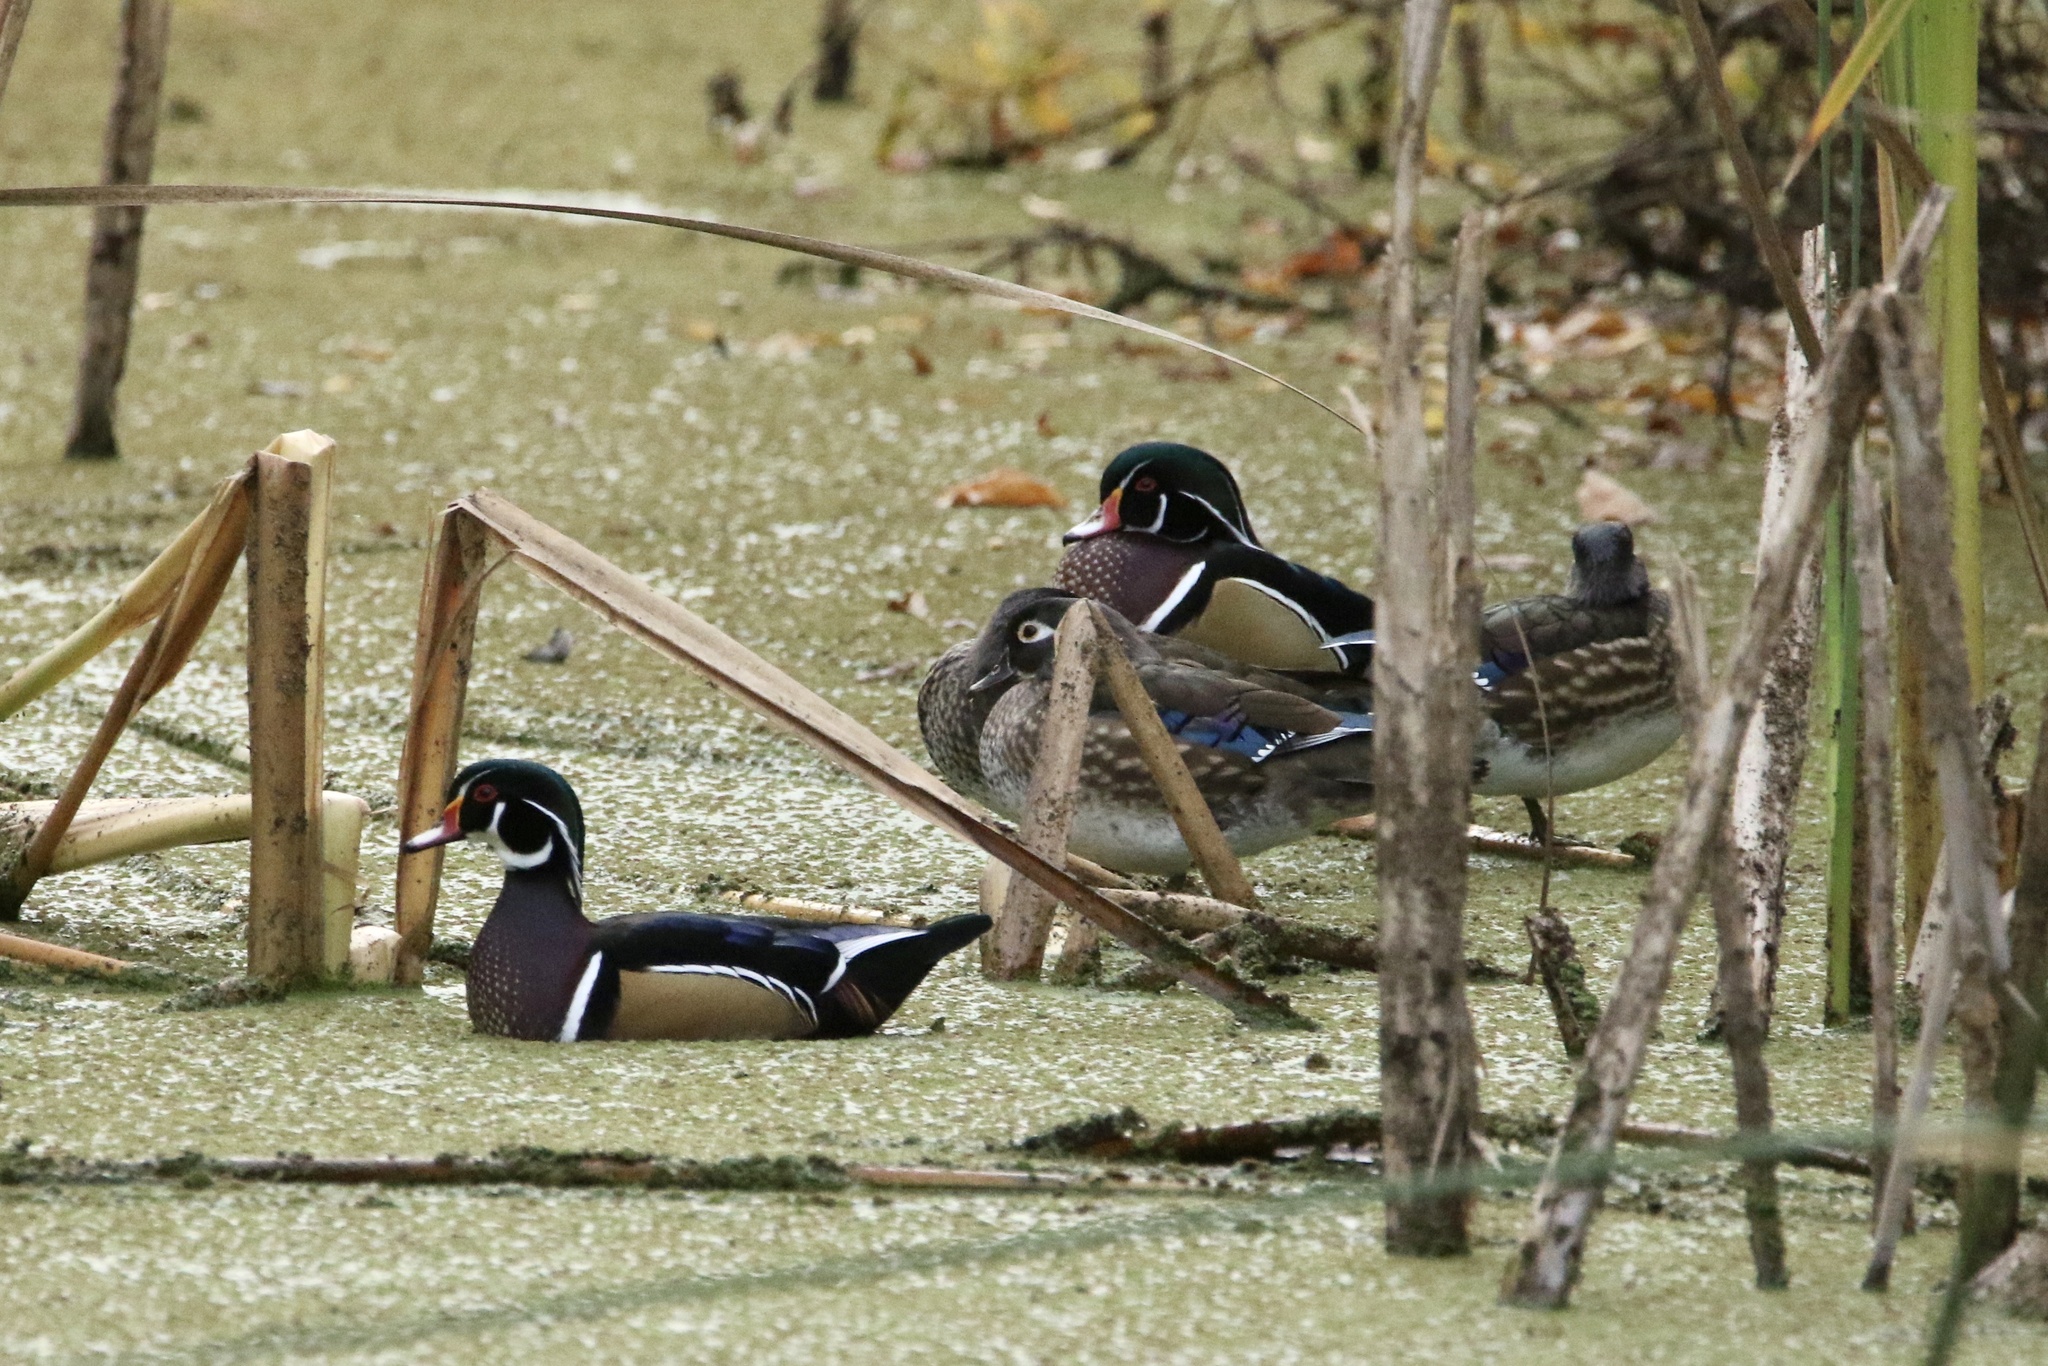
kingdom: Animalia
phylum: Chordata
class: Aves
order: Anseriformes
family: Anatidae
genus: Aix
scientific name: Aix sponsa
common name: Wood duck
